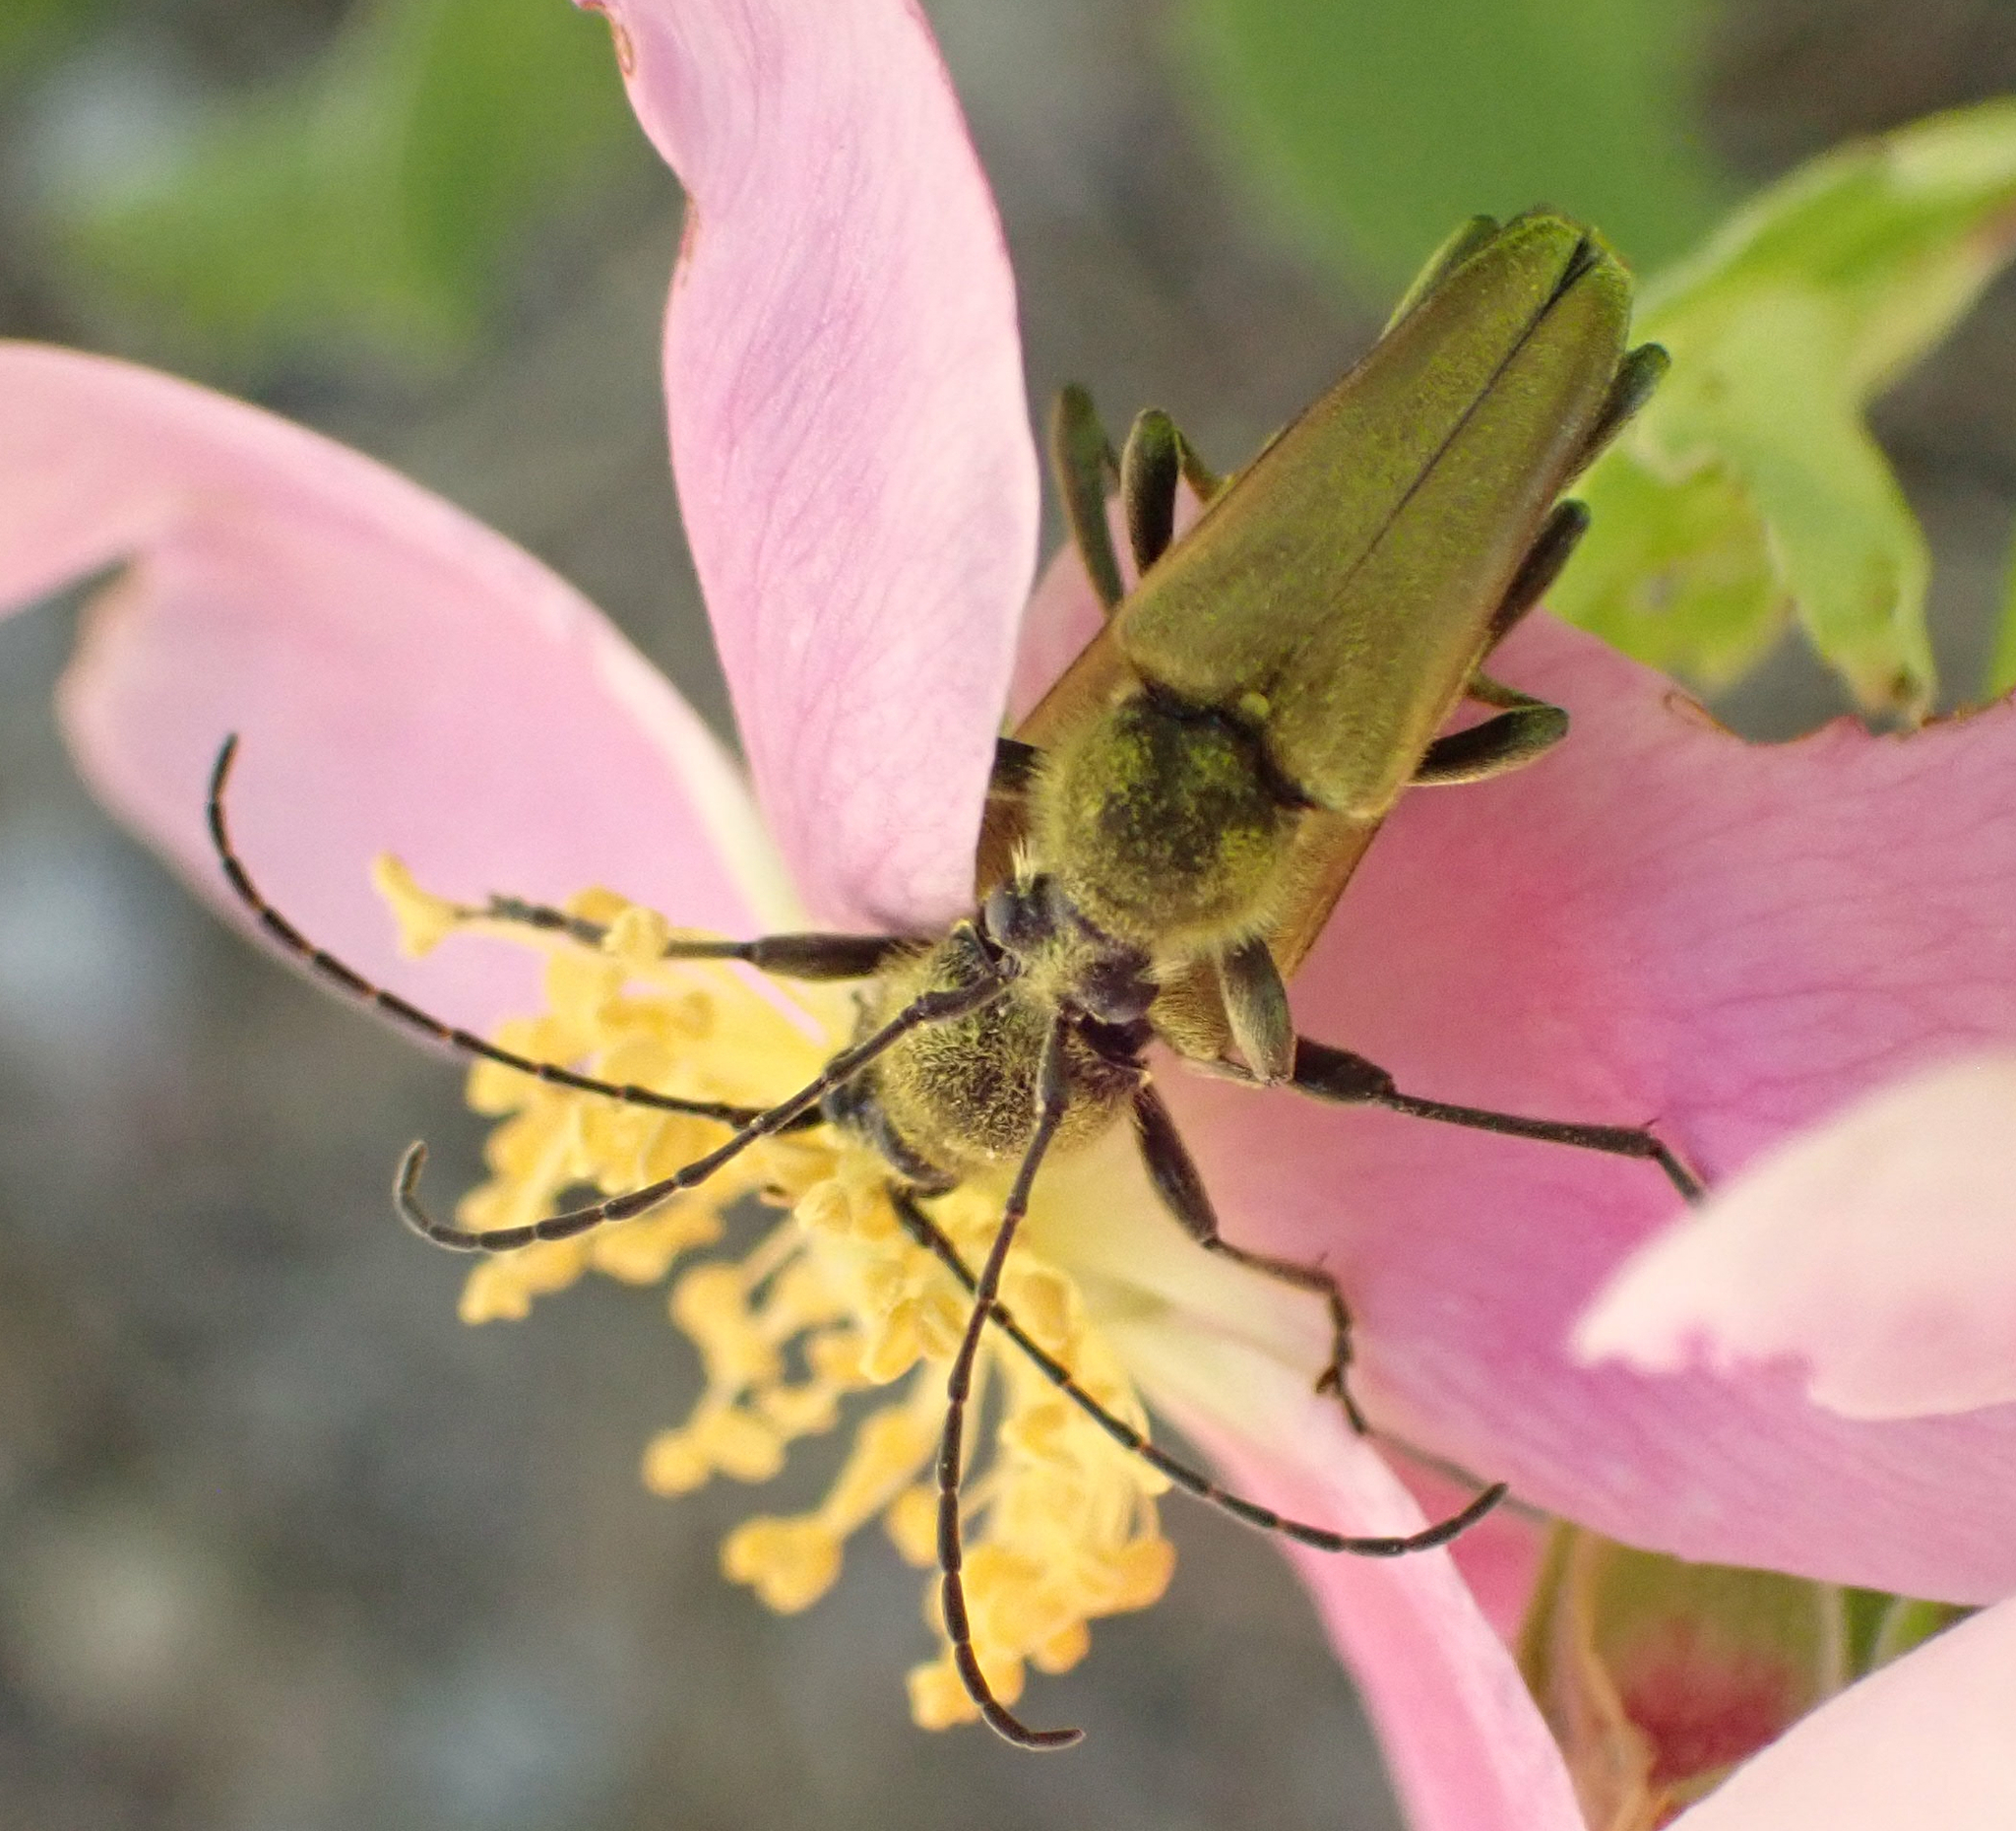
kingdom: Animalia
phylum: Arthropoda
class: Insecta
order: Coleoptera
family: Cerambycidae
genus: Cosmosalia
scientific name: Cosmosalia chrysocoma
